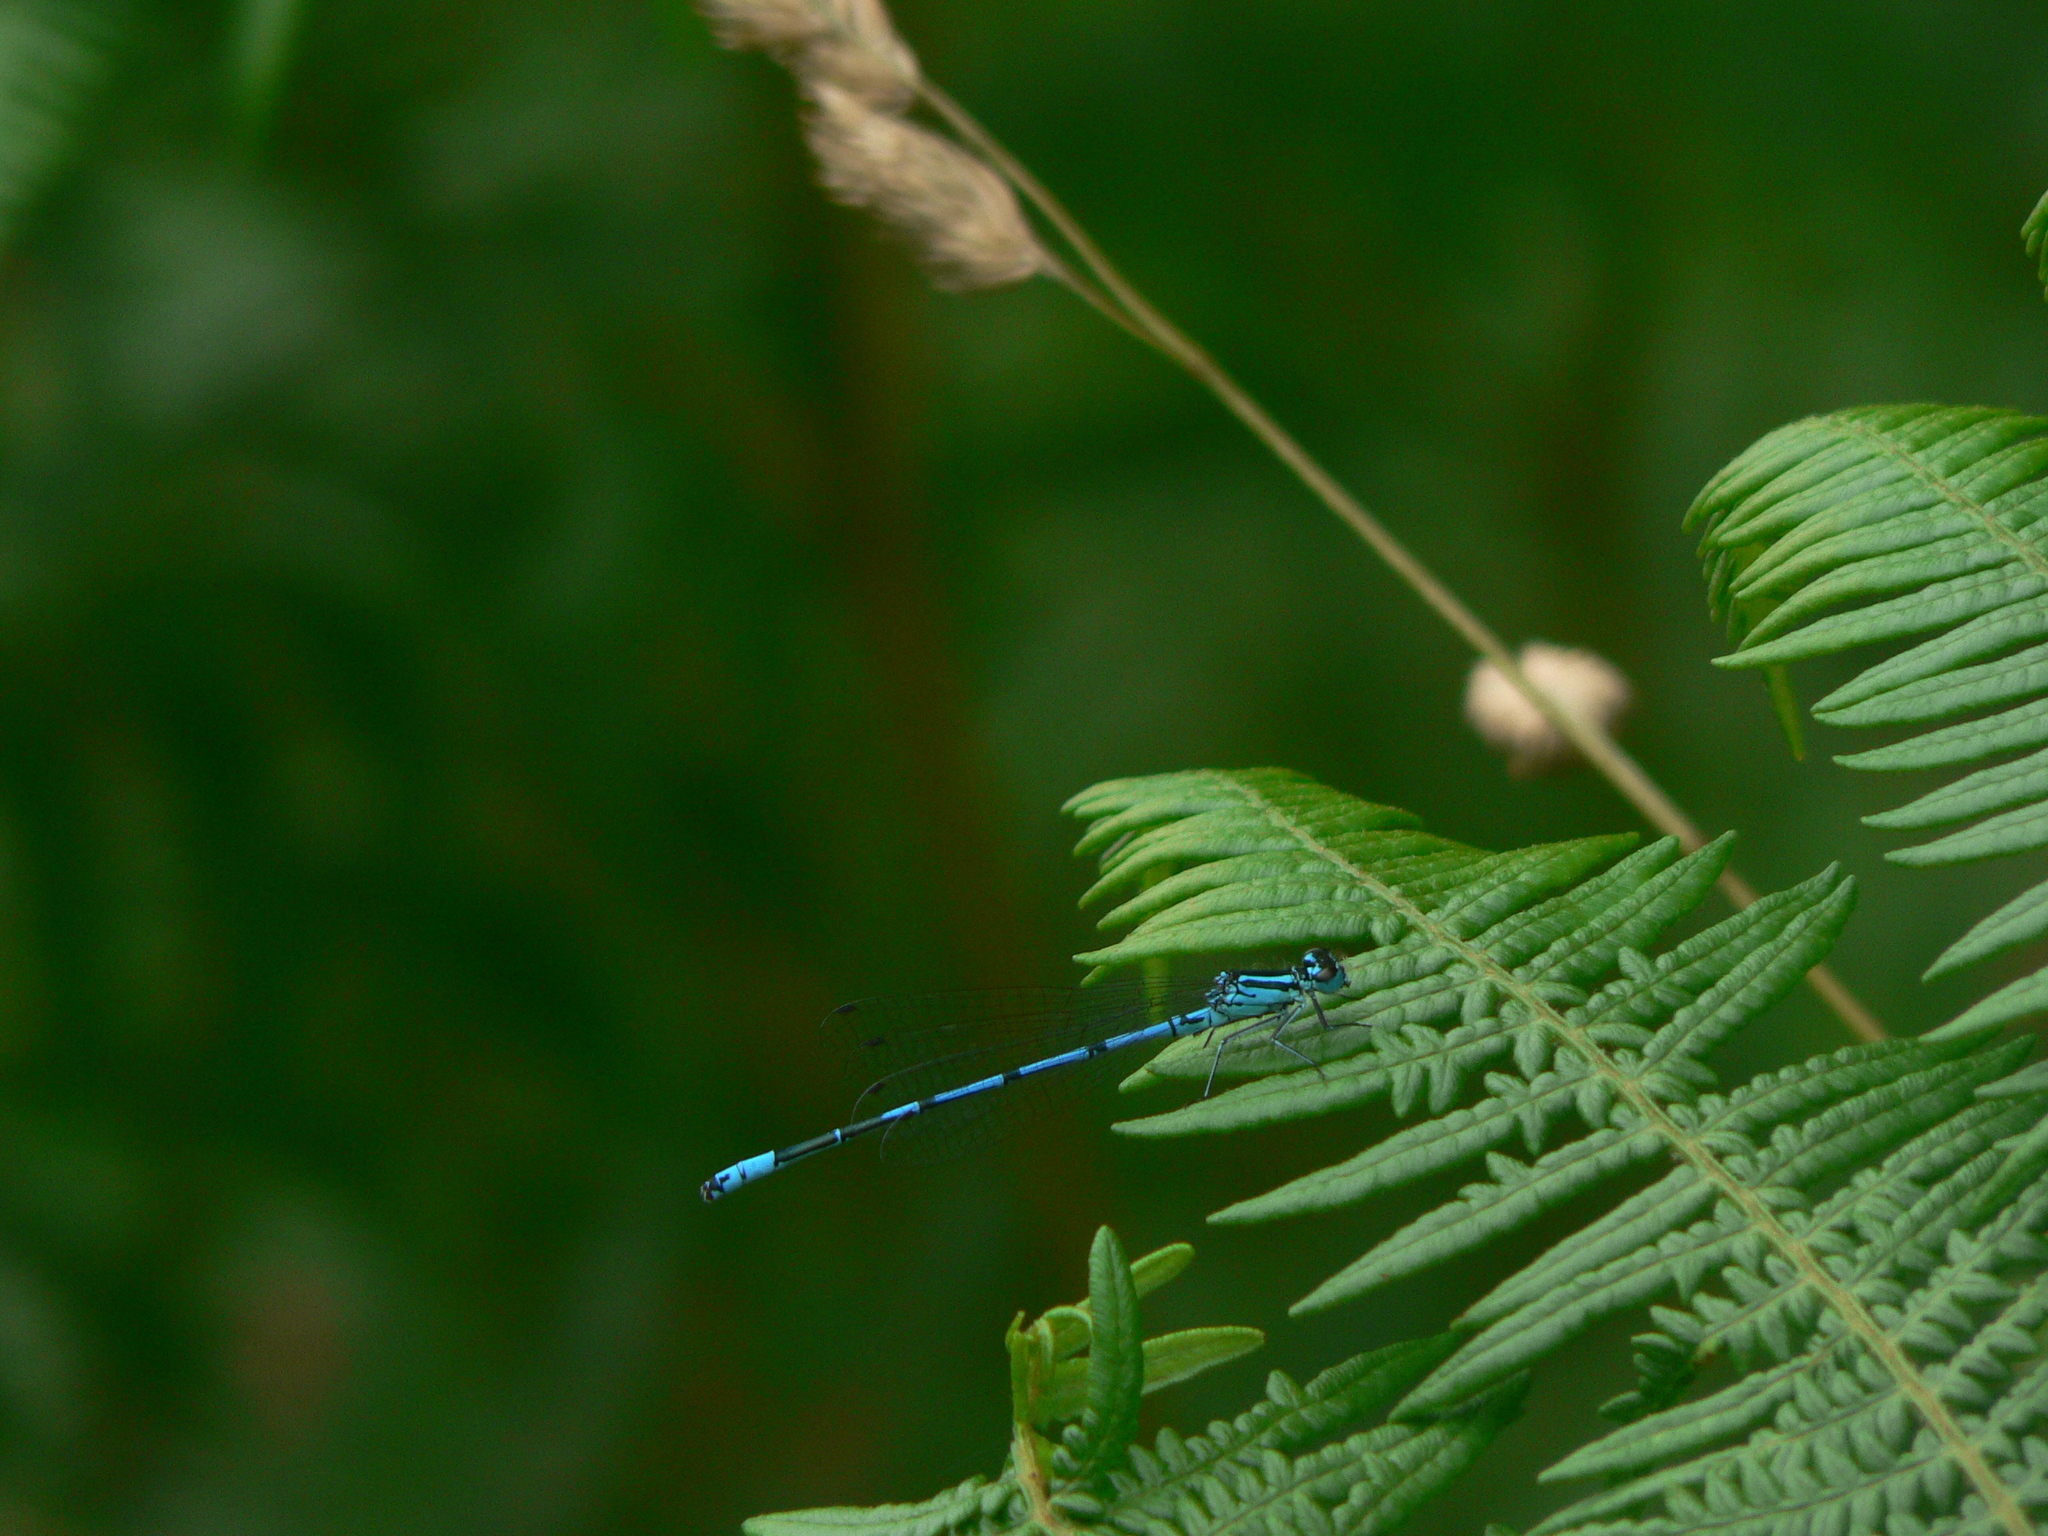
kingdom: Animalia
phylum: Arthropoda
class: Insecta
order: Odonata
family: Coenagrionidae
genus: Coenagrion
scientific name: Coenagrion puella
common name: Azure damselfly
